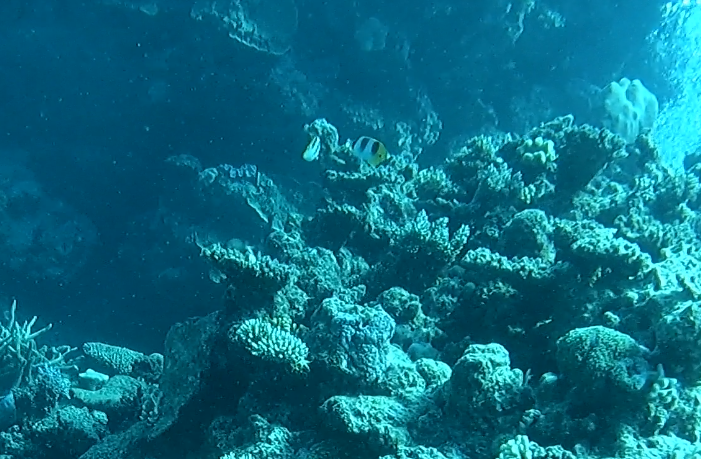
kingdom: Animalia
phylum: Chordata
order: Perciformes
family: Chaetodontidae
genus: Chaetodon
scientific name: Chaetodon ulietensis
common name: Pacific double-saddle butterflyfish
